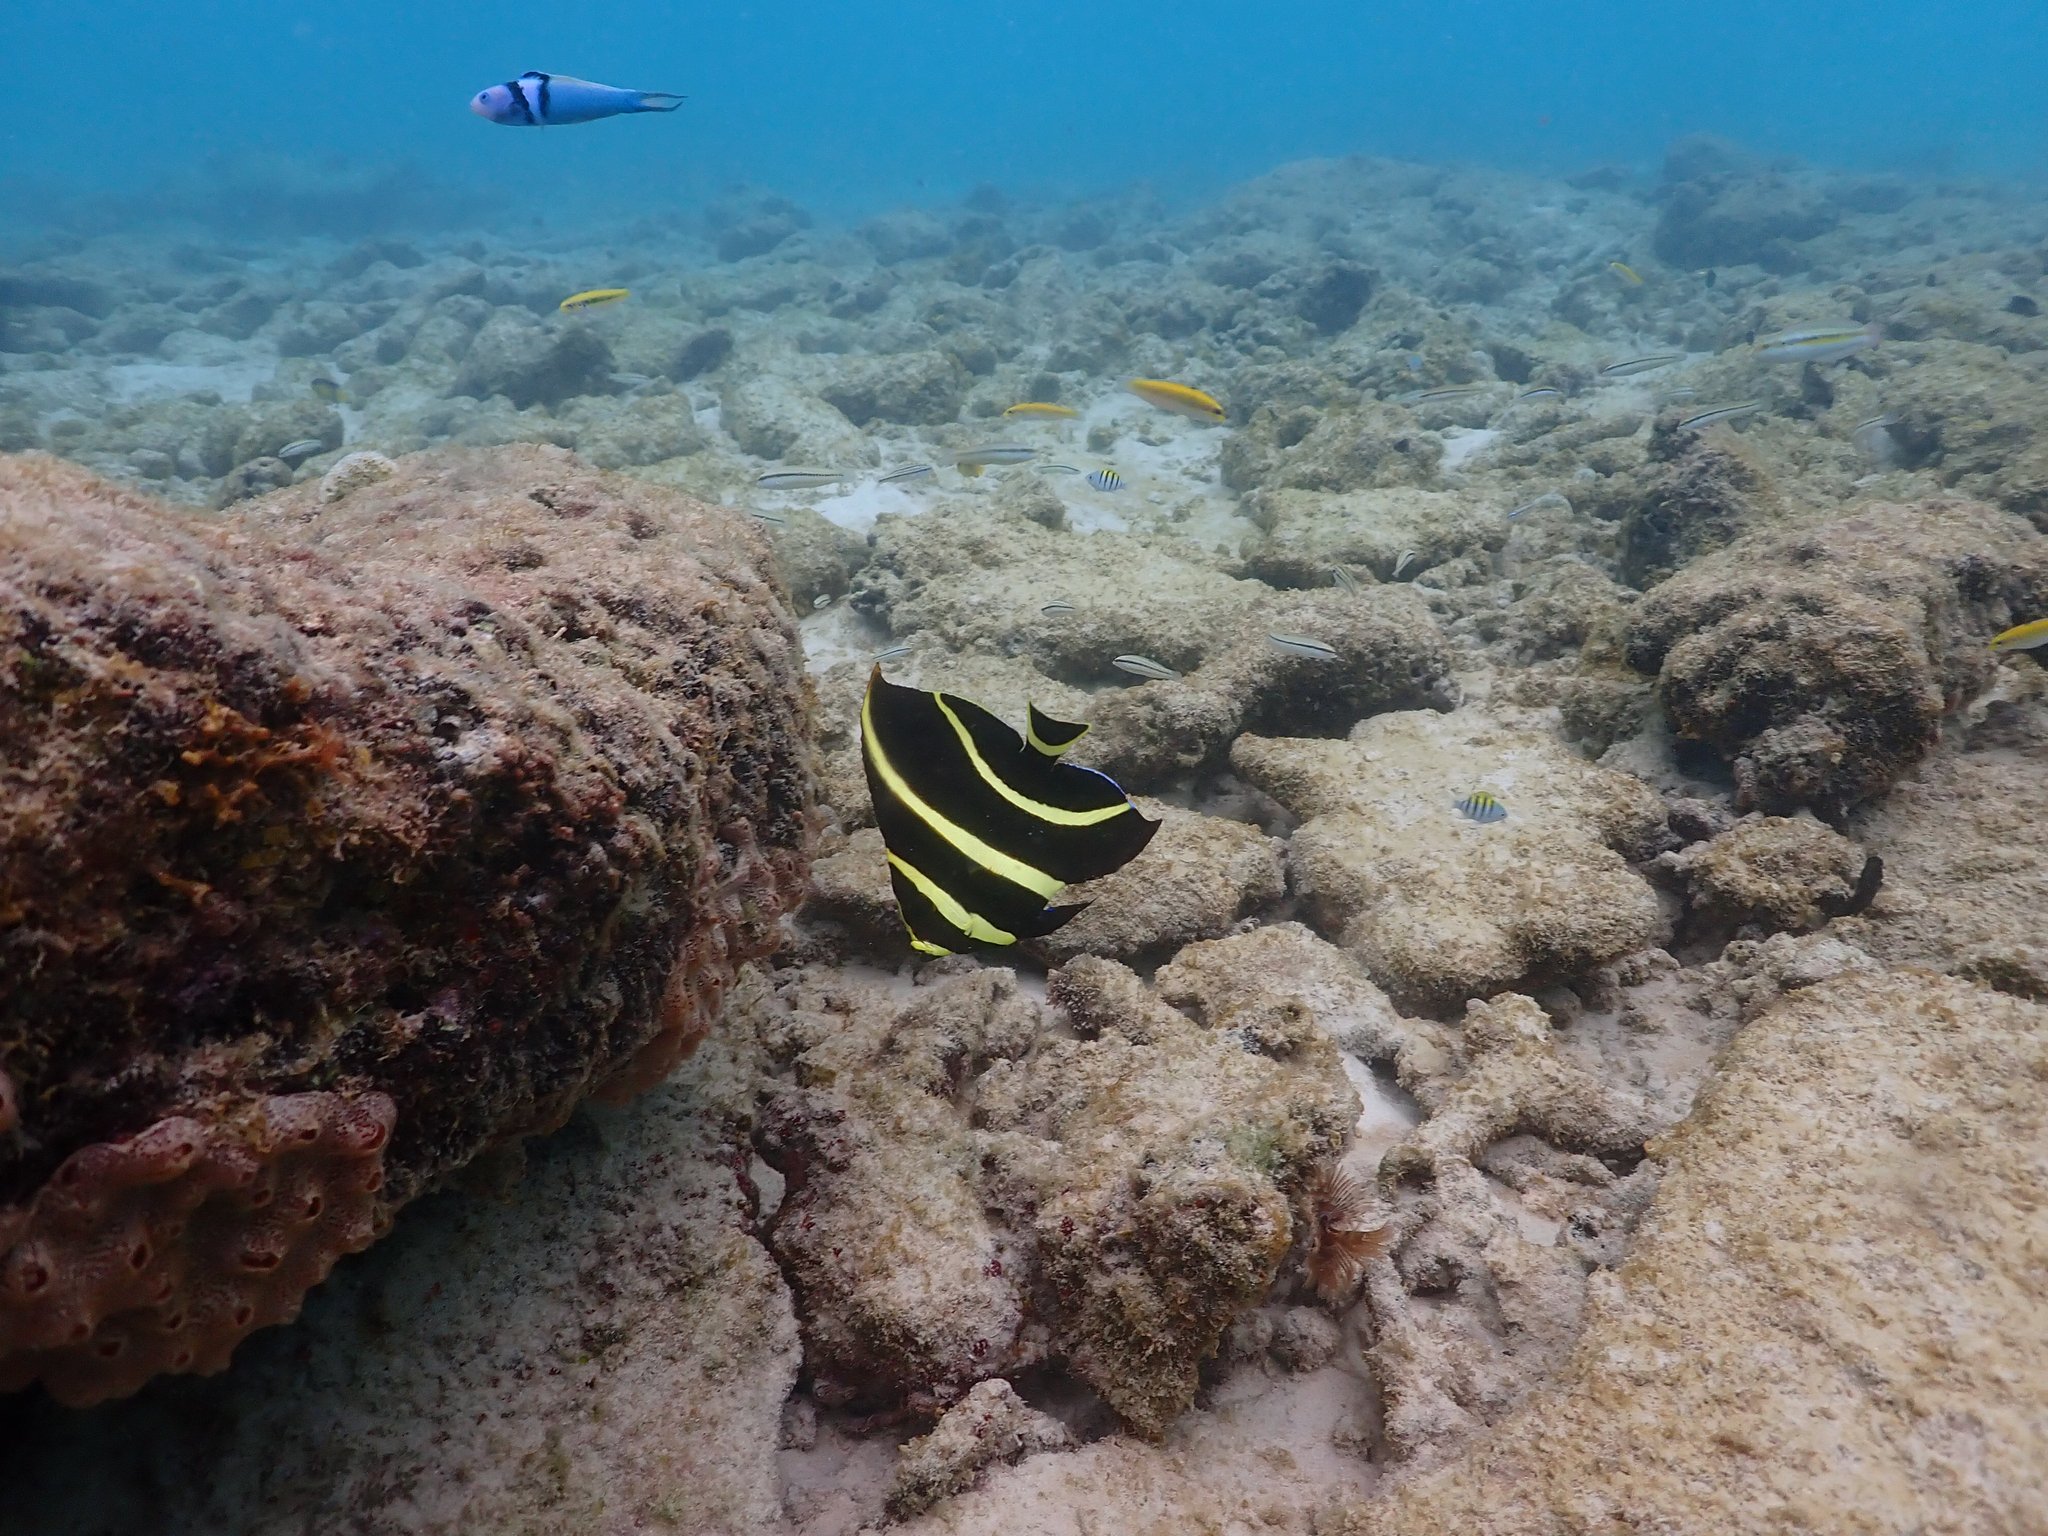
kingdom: Animalia
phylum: Chordata
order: Perciformes
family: Pomacanthidae
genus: Pomacanthus
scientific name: Pomacanthus paru
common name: French angelfish
